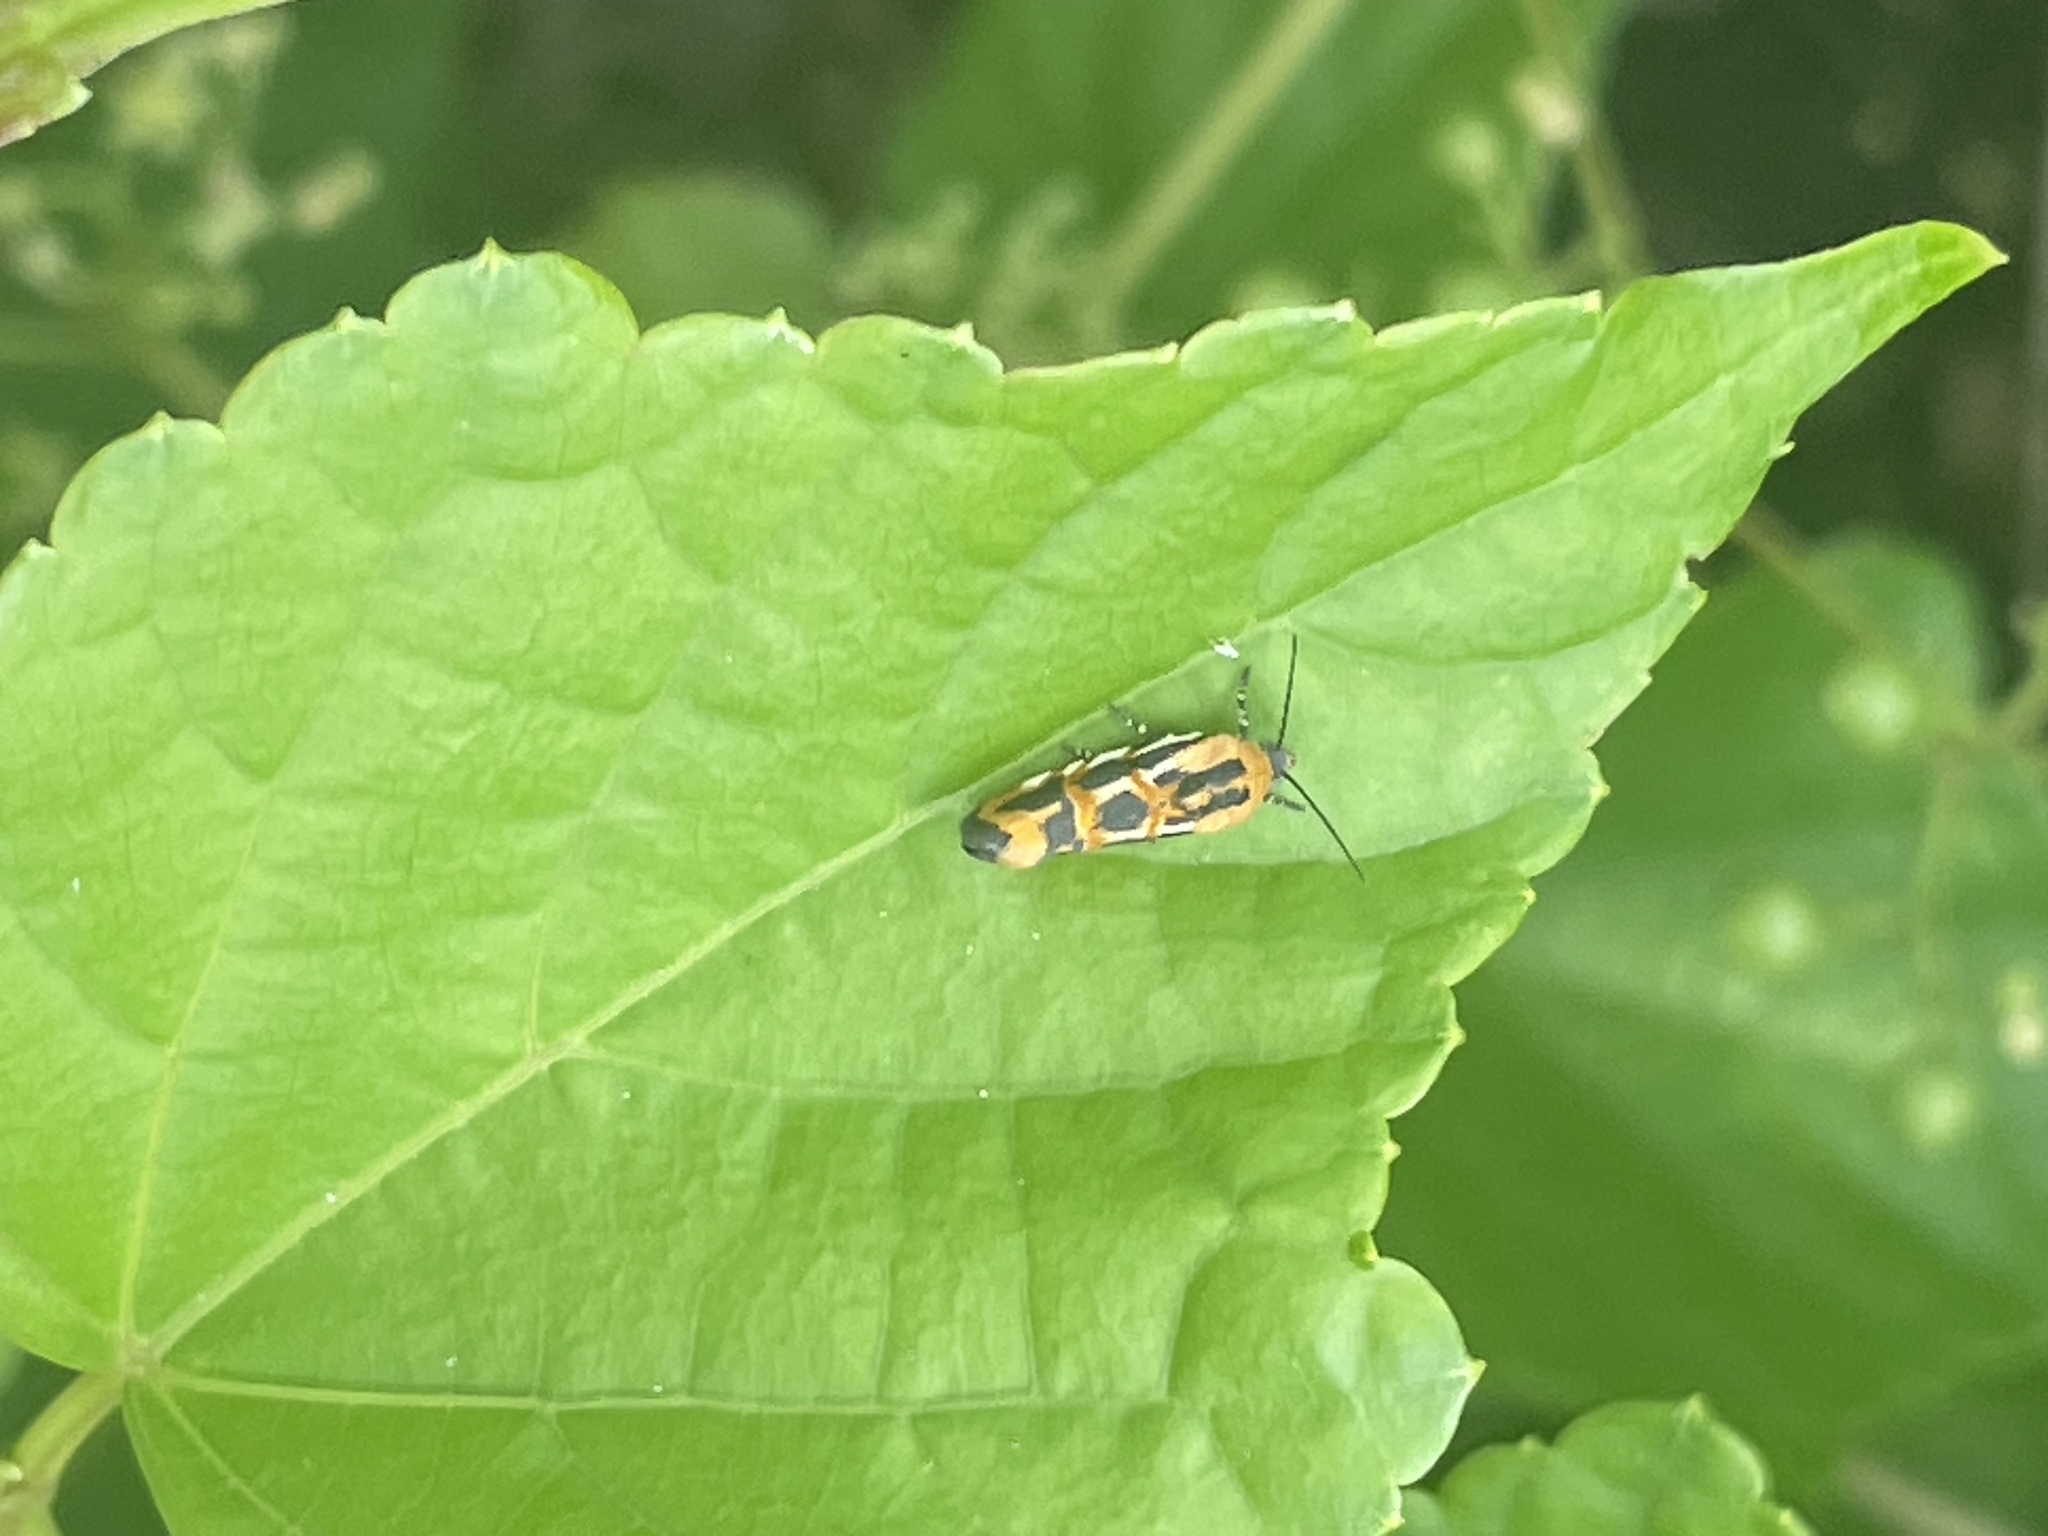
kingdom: Animalia
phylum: Arthropoda
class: Insecta
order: Lepidoptera
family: Noctuidae
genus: Acontia
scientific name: Acontia leo
